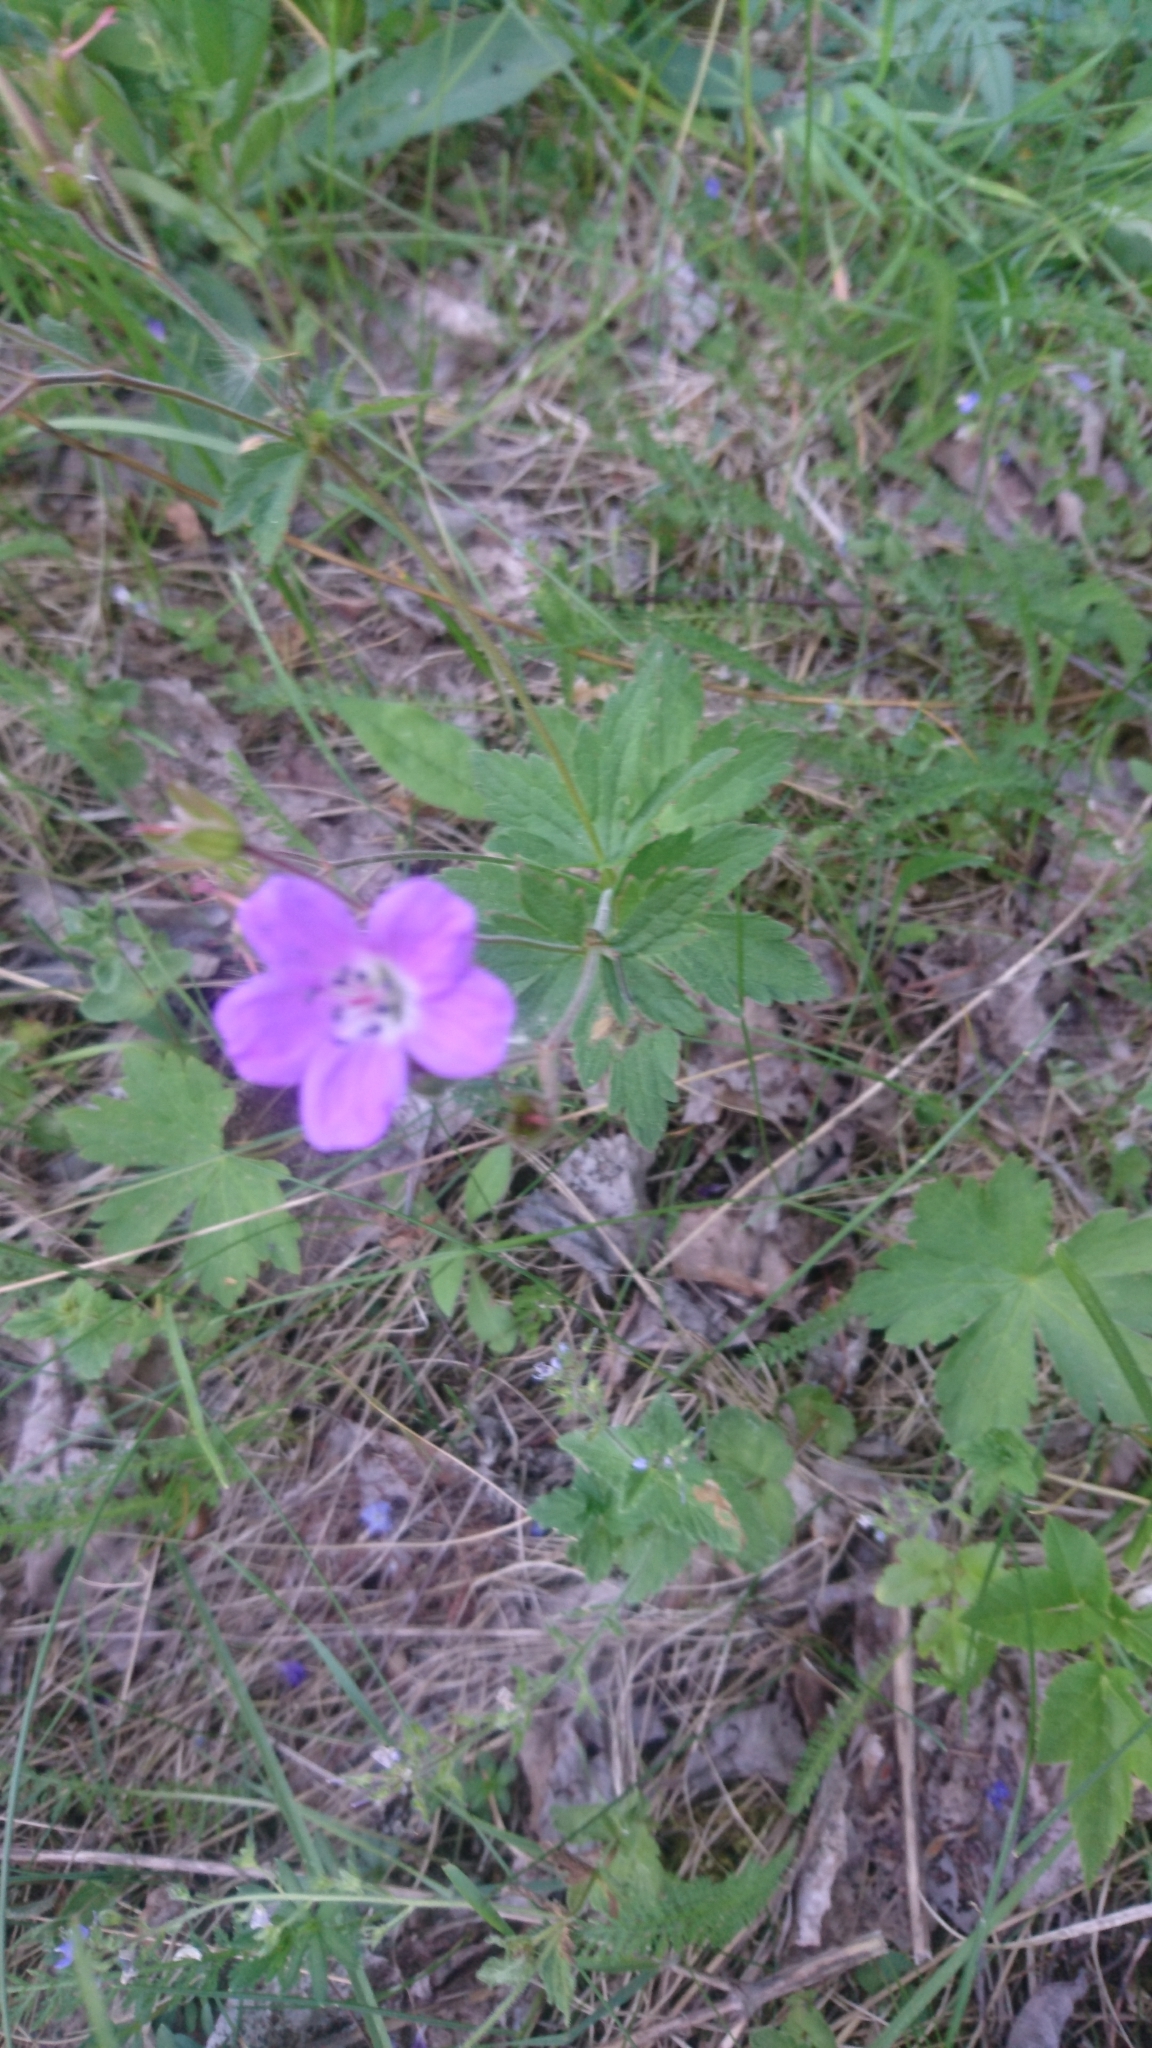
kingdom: Plantae
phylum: Tracheophyta
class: Magnoliopsida
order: Geraniales
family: Geraniaceae
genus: Geranium
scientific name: Geranium sylvaticum
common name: Wood crane's-bill
